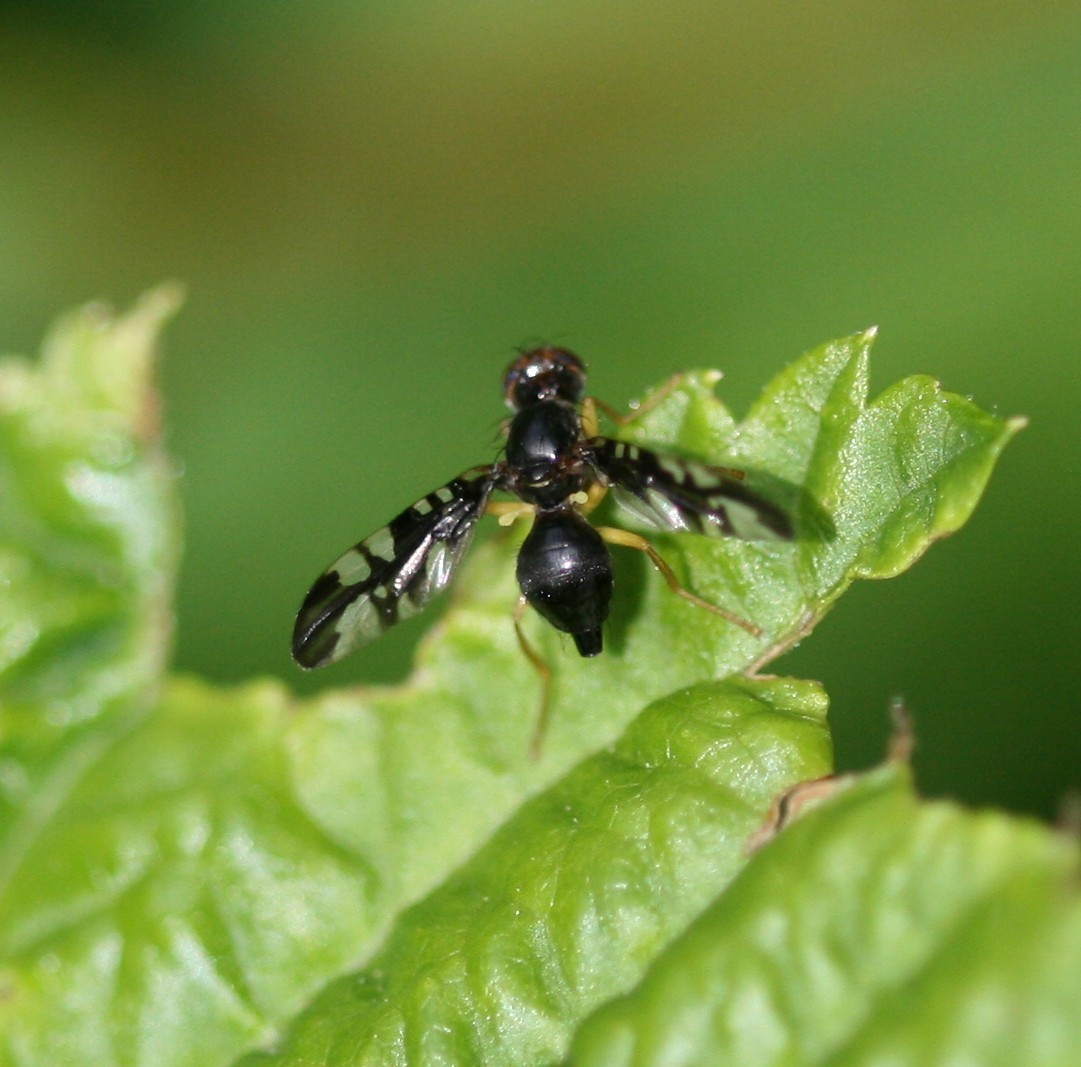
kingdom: Animalia
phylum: Arthropoda
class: Insecta
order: Diptera
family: Tephritidae
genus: Euleia
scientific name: Euleia rotundiventris
